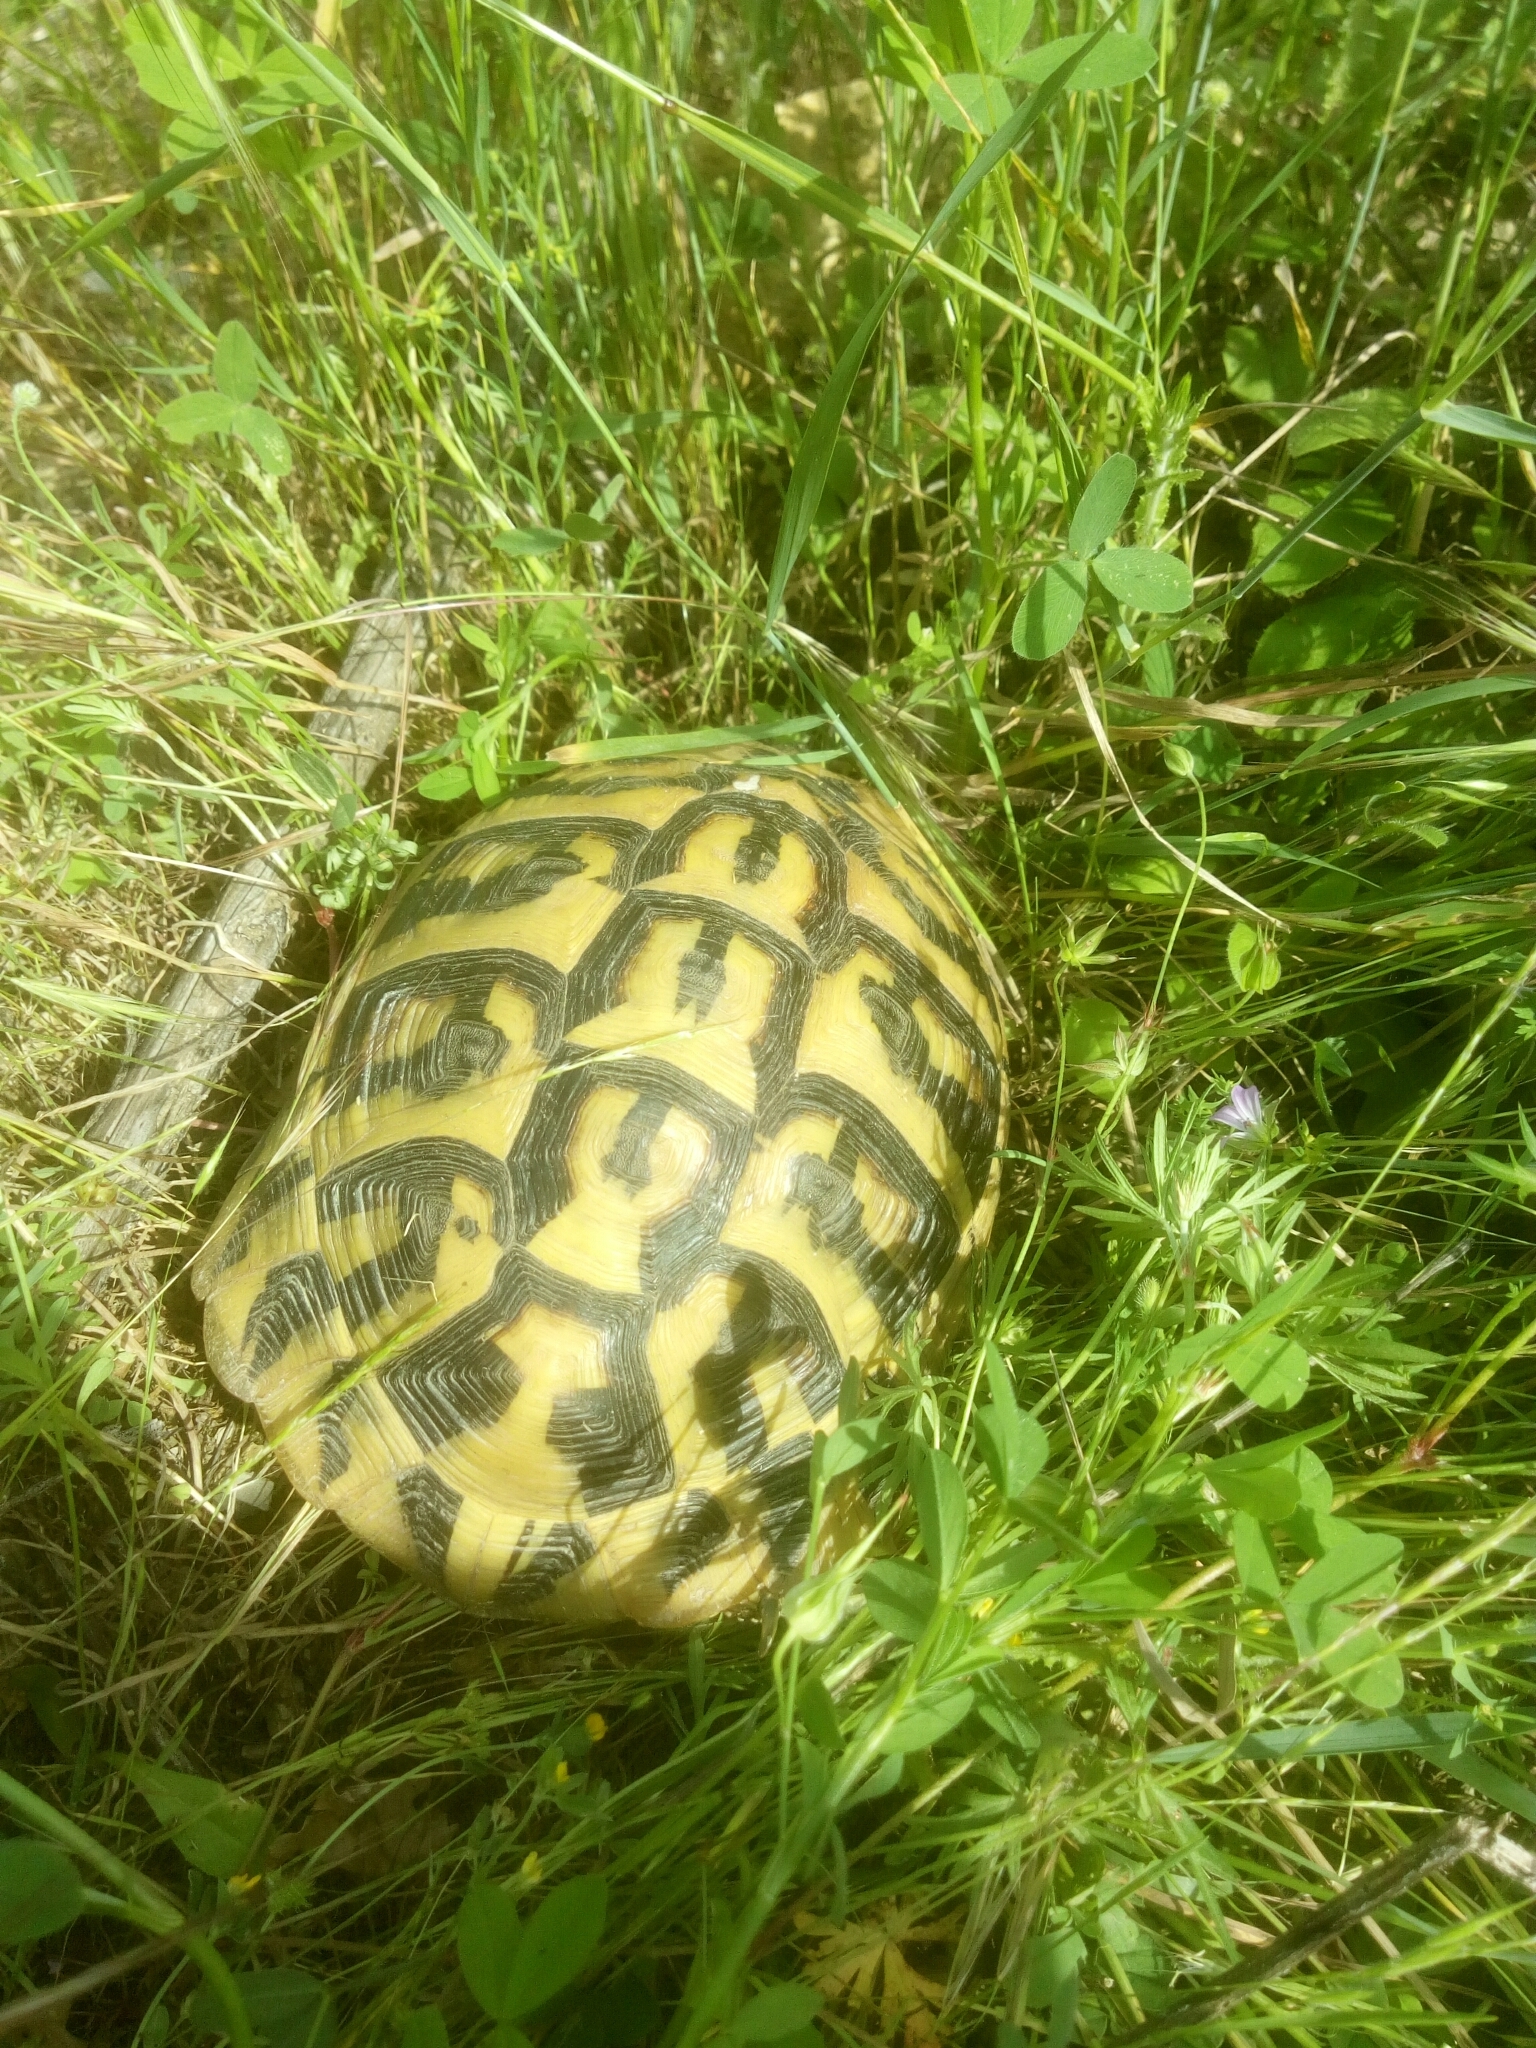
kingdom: Animalia
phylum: Chordata
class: Testudines
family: Testudinidae
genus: Testudo
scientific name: Testudo hermanni
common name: Hermann's tortoise
